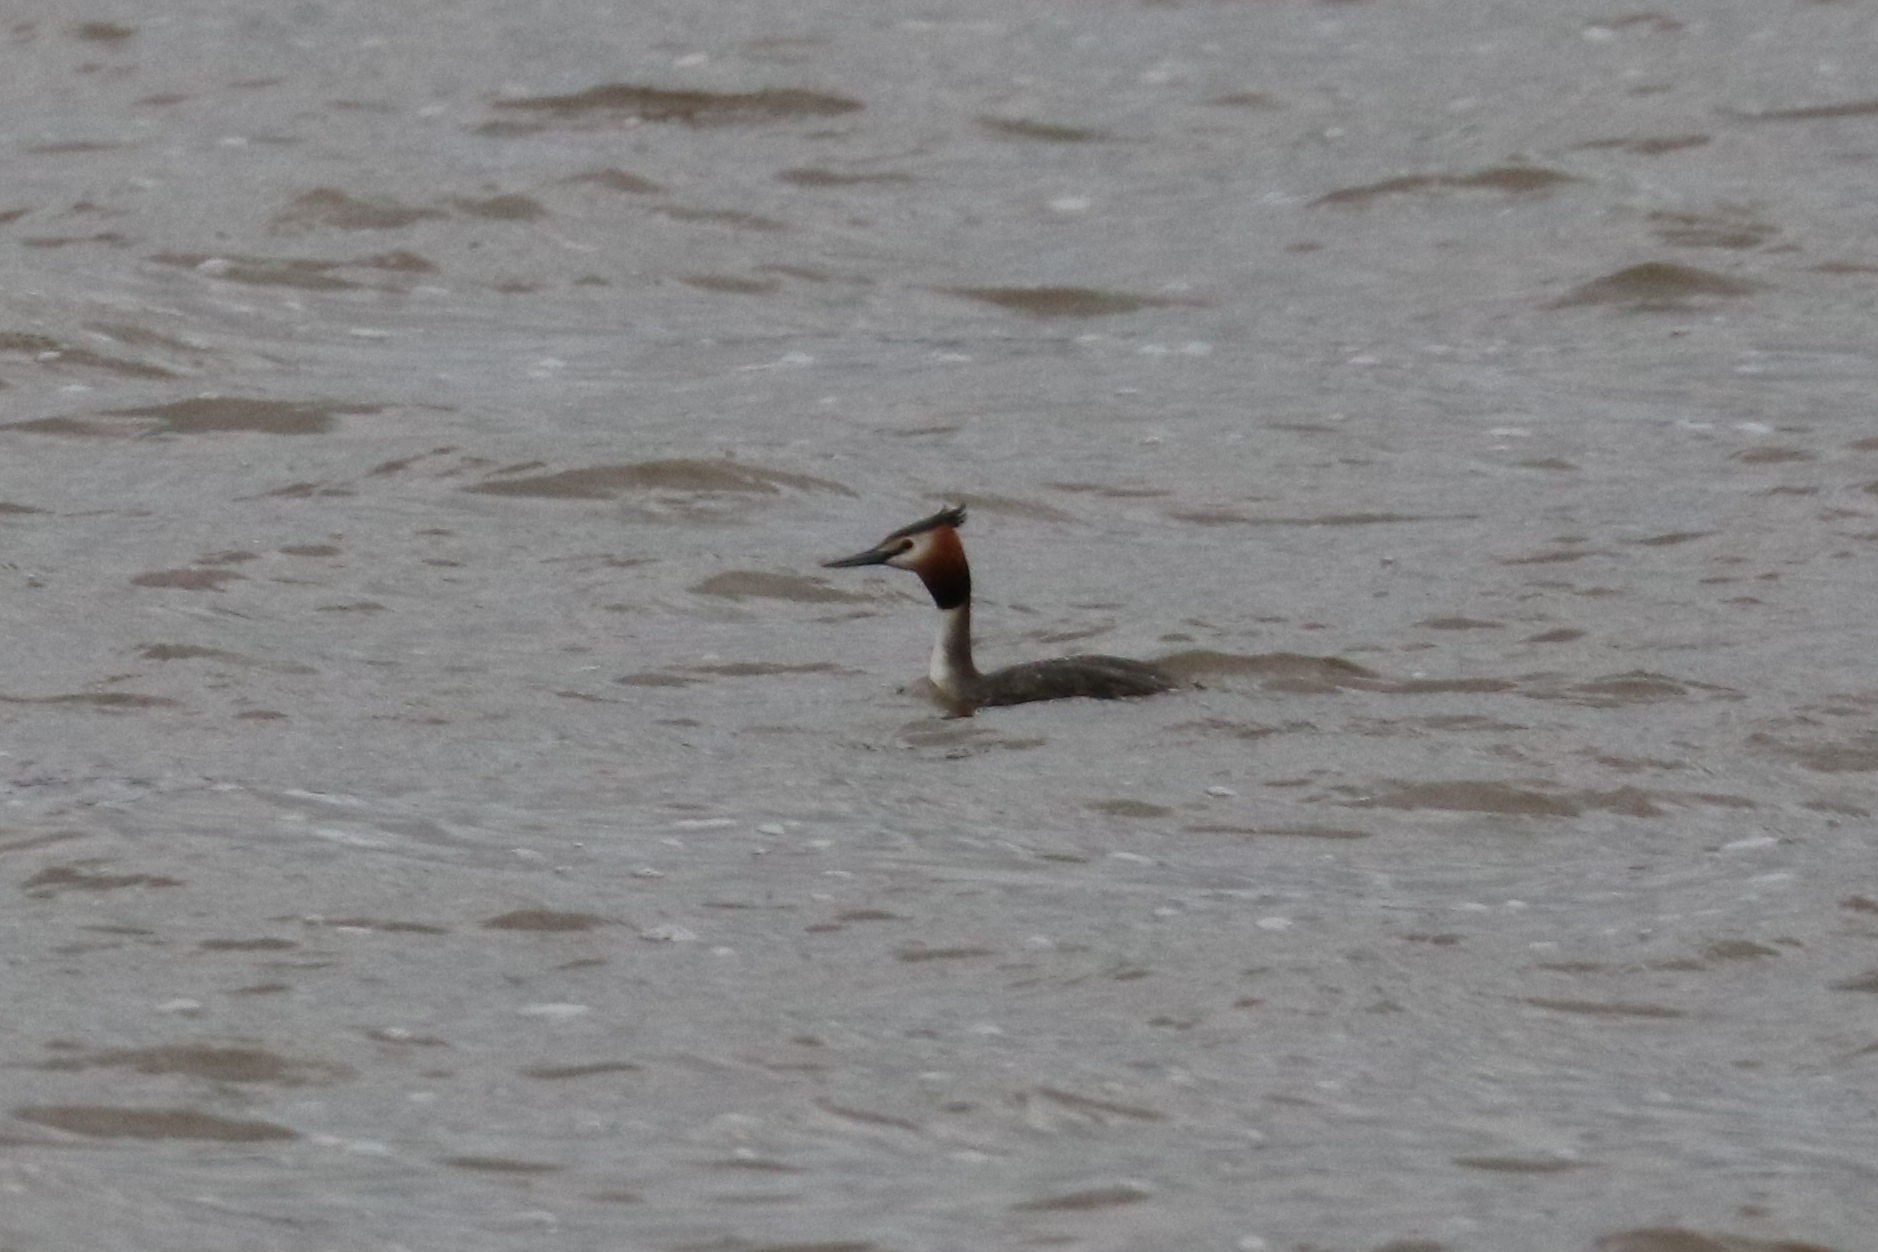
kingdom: Animalia
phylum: Chordata
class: Aves
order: Podicipediformes
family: Podicipedidae
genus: Podiceps
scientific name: Podiceps cristatus
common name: Great crested grebe
